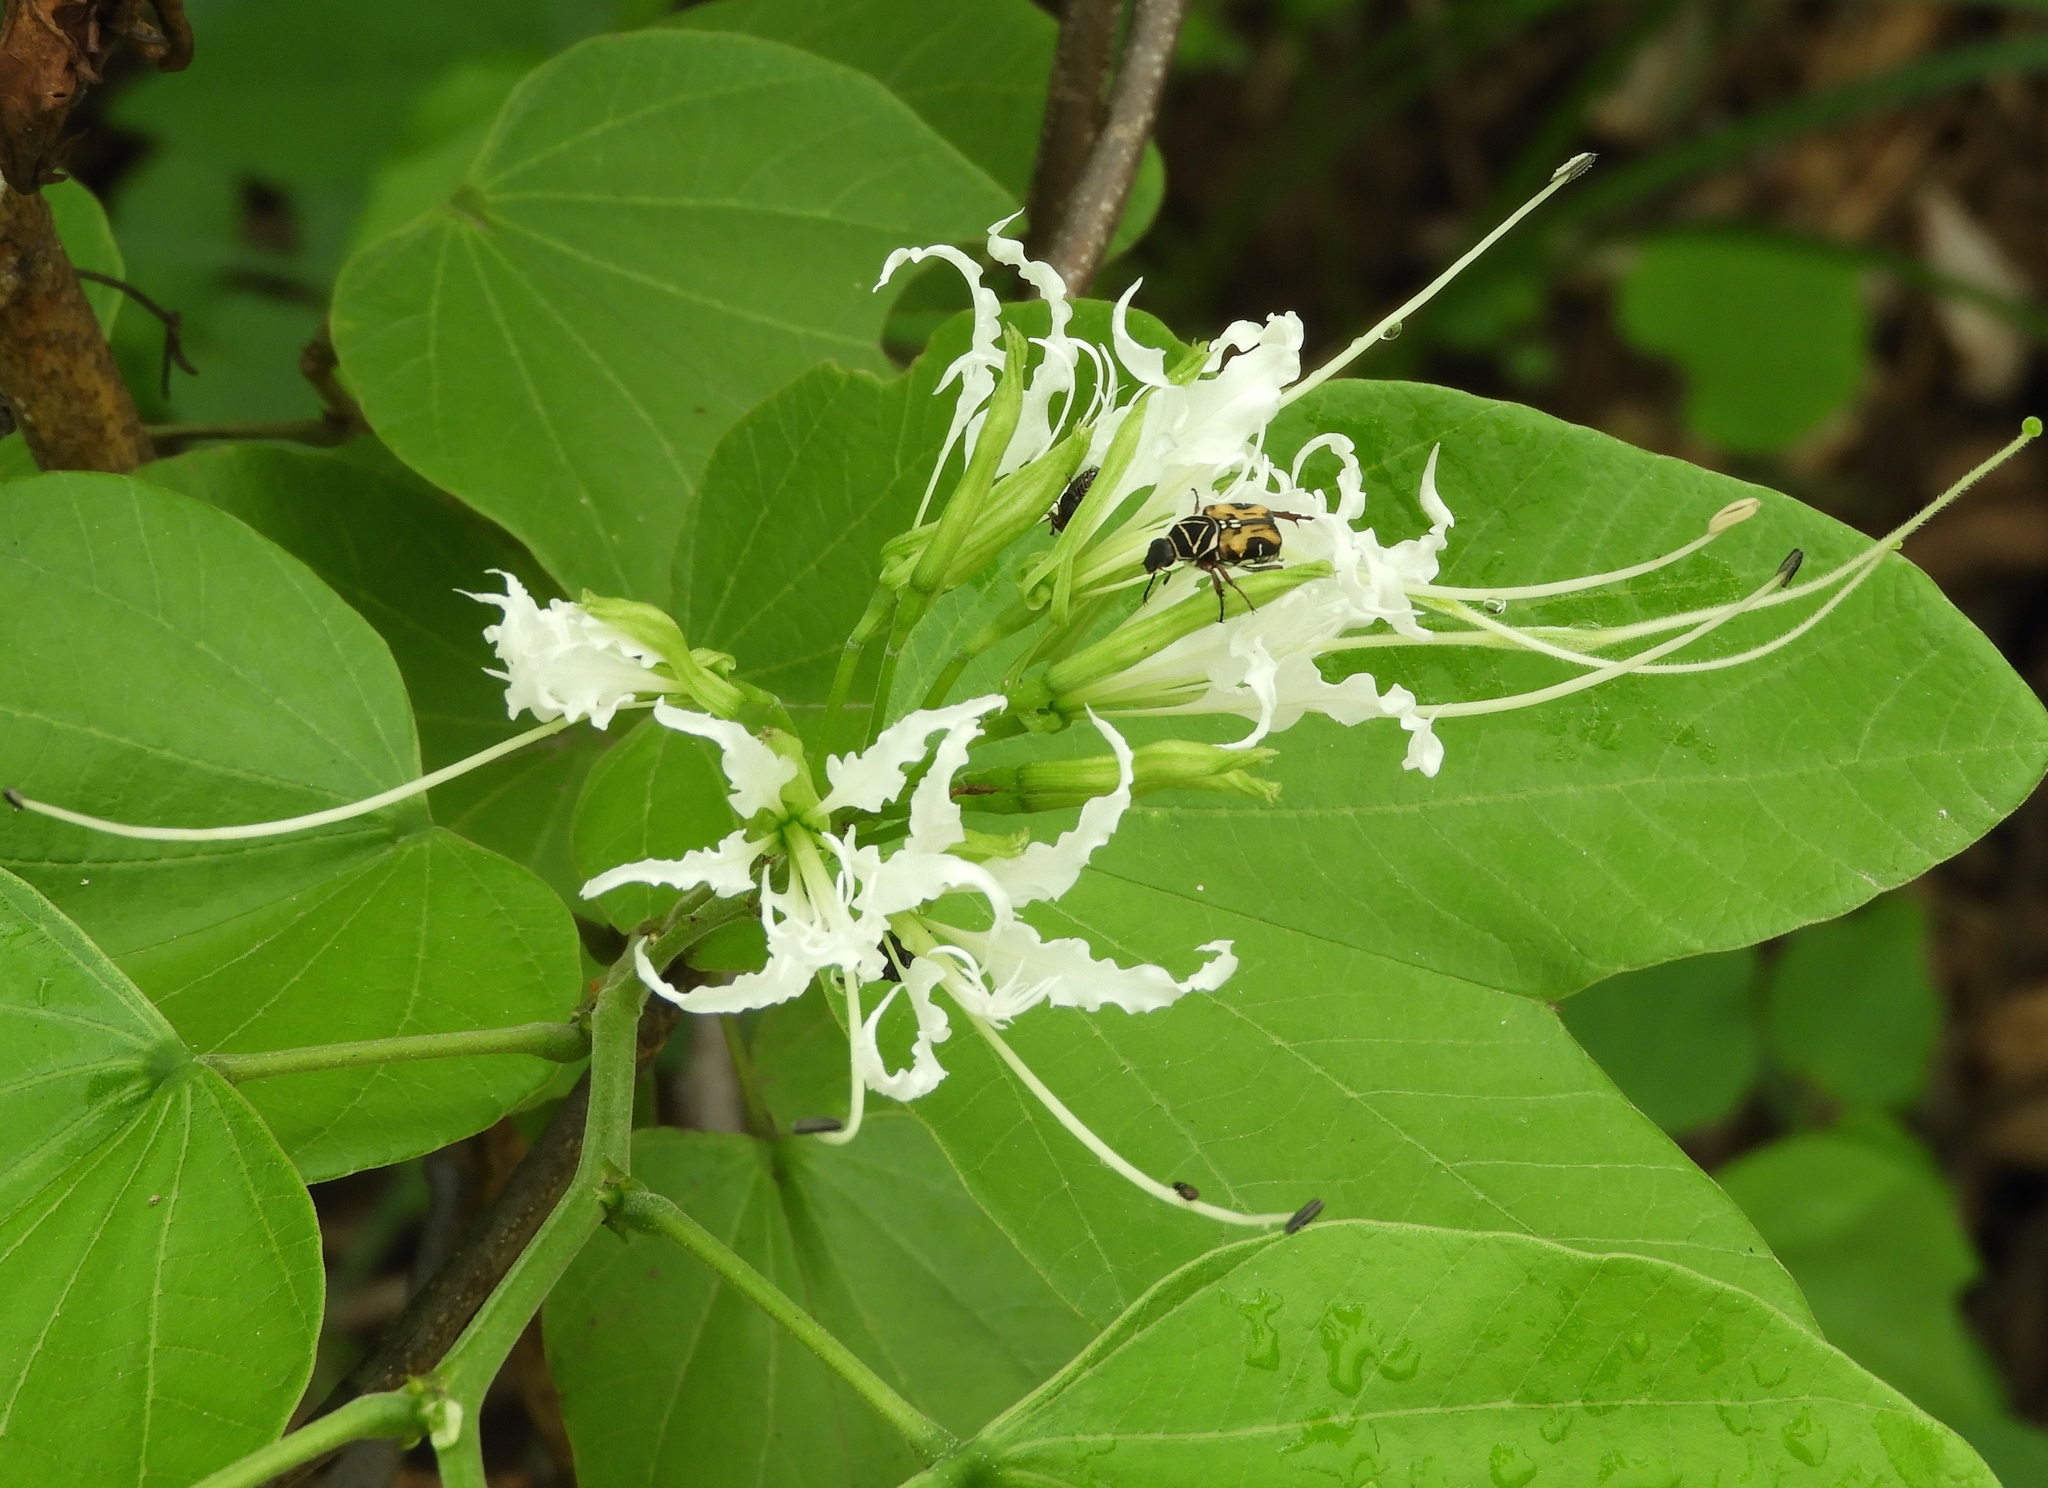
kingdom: Plantae
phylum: Tracheophyta
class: Magnoliopsida
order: Fabales
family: Fabaceae
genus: Bauhinia
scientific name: Bauhinia divaricata
